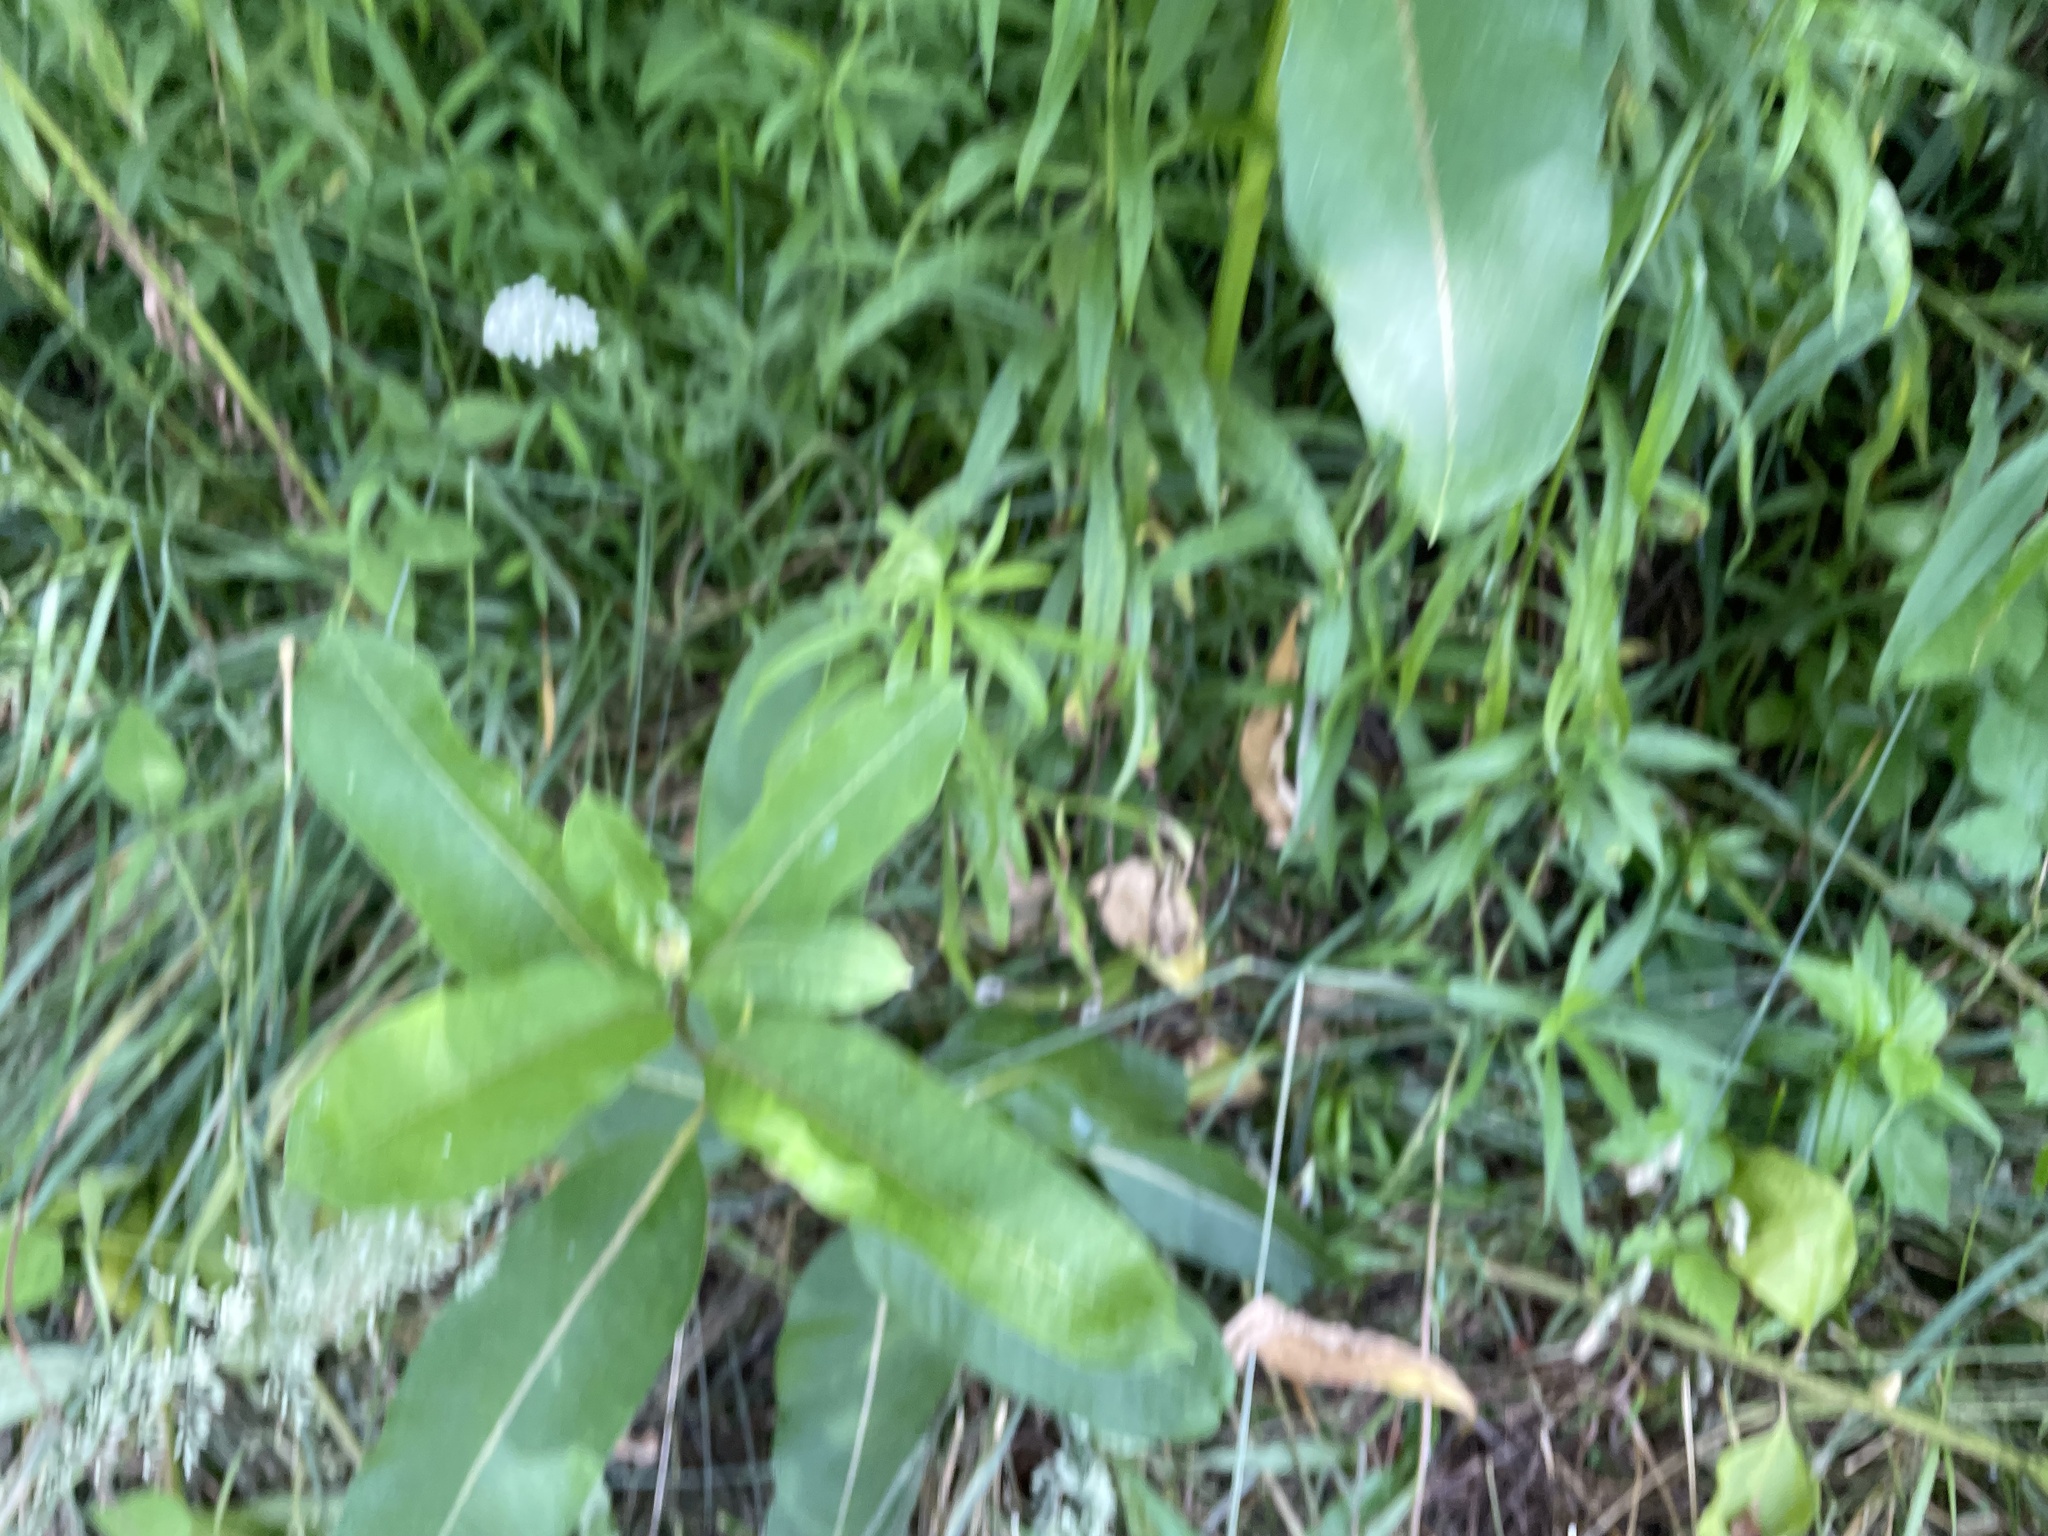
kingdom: Plantae
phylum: Tracheophyta
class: Magnoliopsida
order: Gentianales
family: Apocynaceae
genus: Asclepias
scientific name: Asclepias syriaca
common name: Common milkweed
